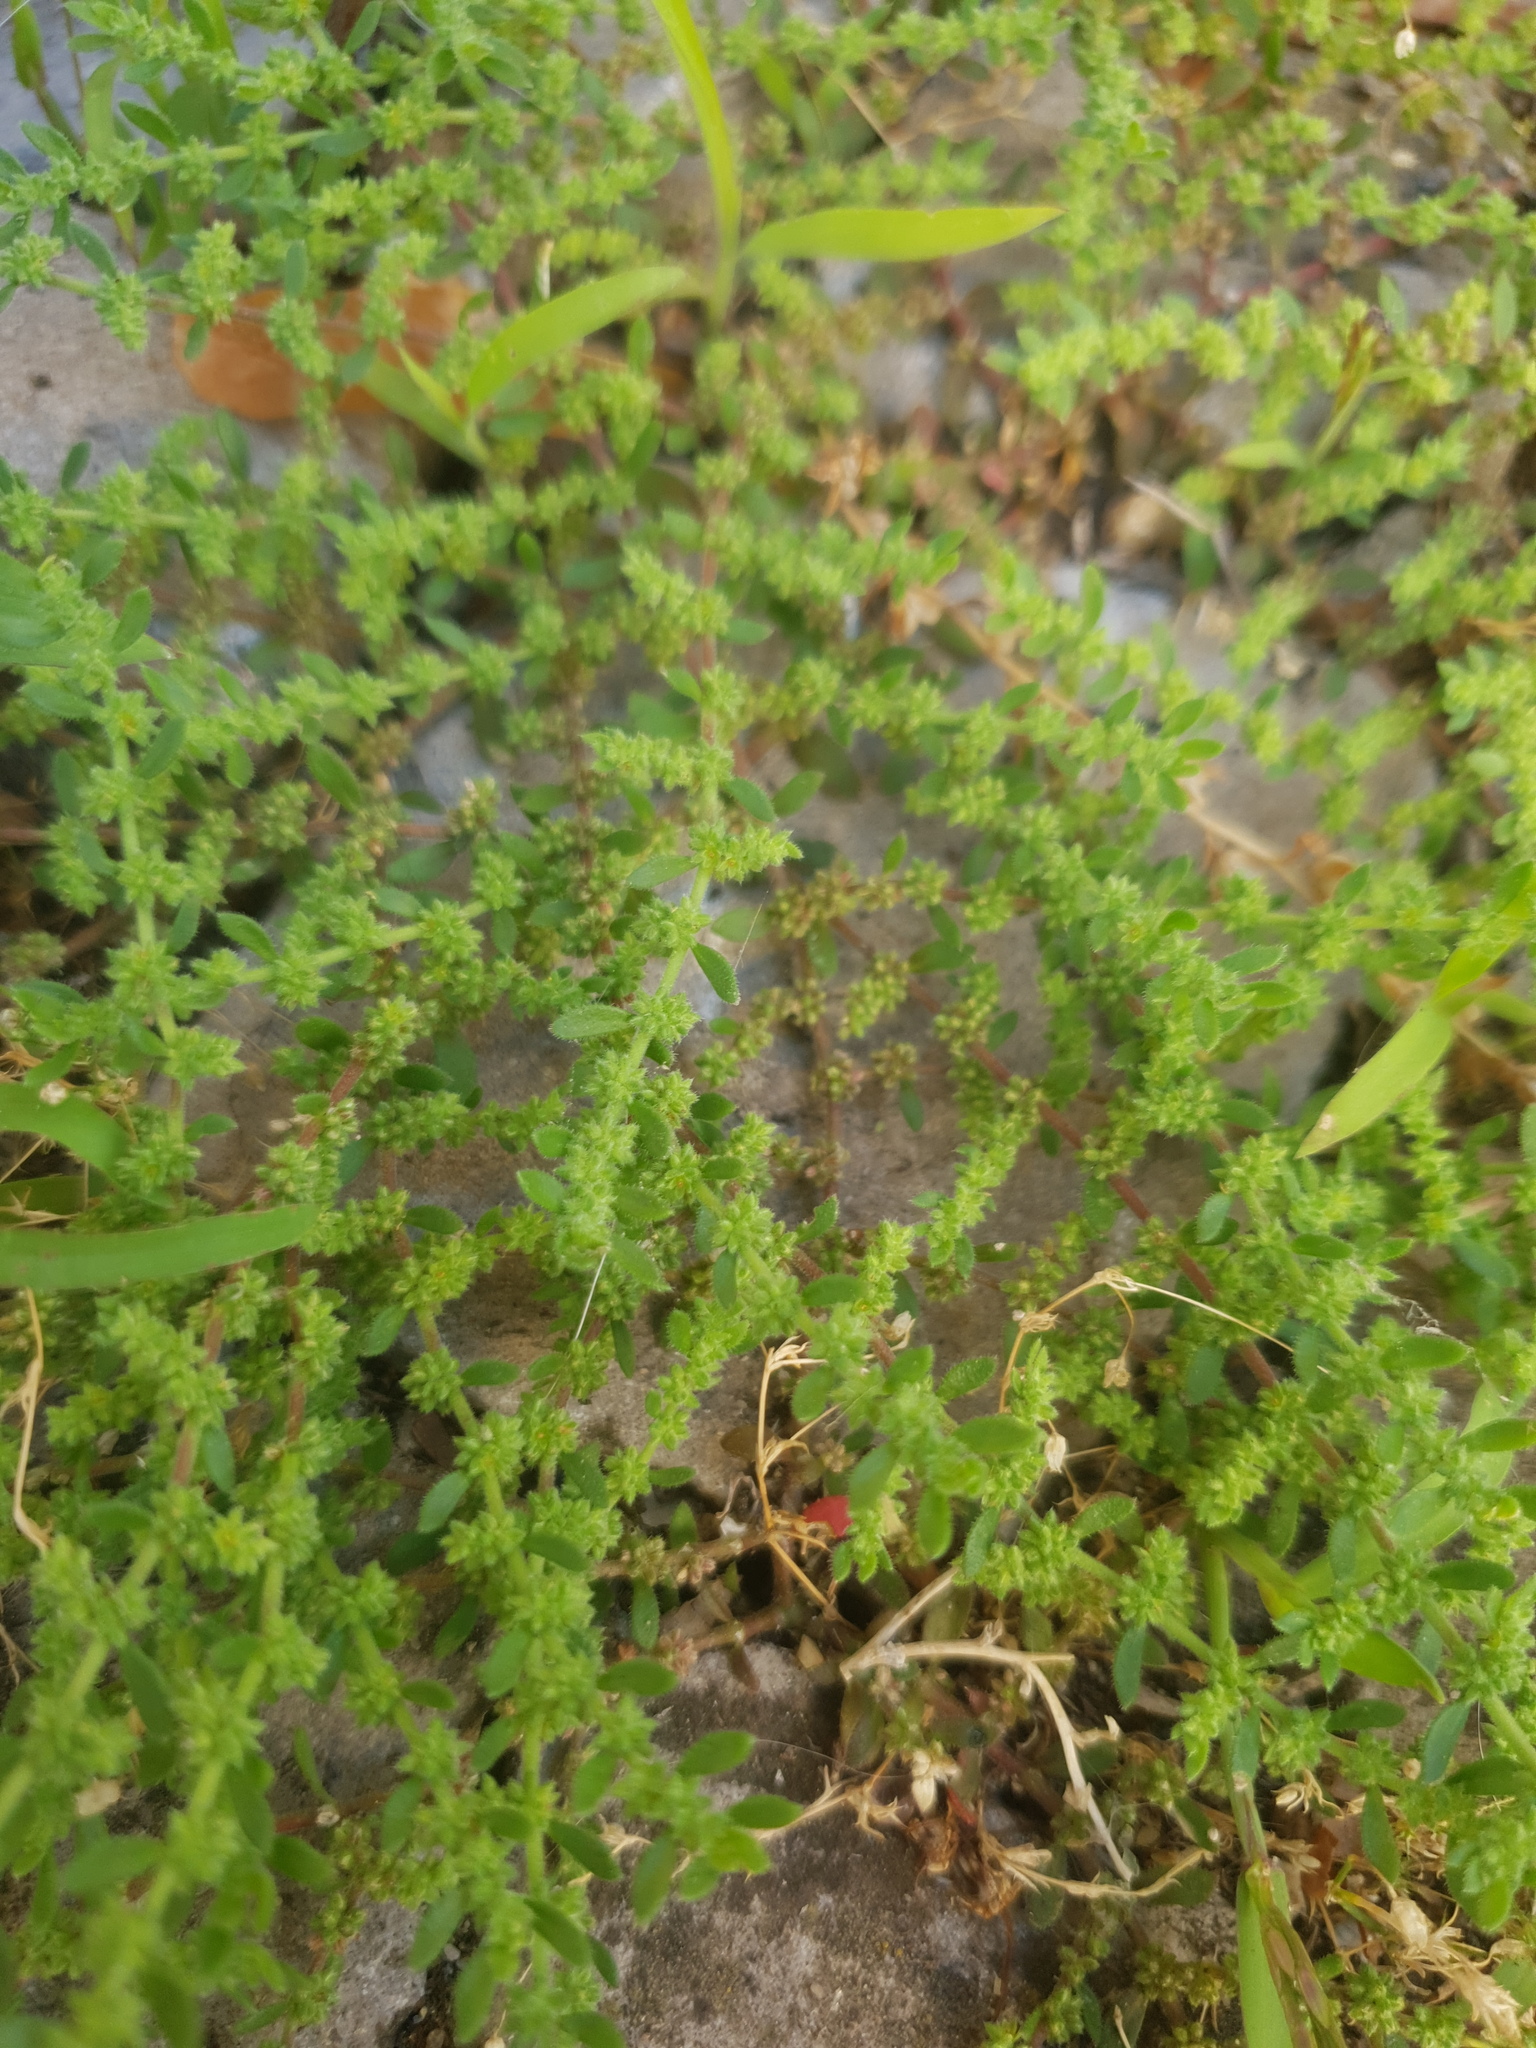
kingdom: Plantae
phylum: Tracheophyta
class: Magnoliopsida
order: Caryophyllales
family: Caryophyllaceae
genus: Herniaria
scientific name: Herniaria hirsuta
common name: Hairy rupturewort
